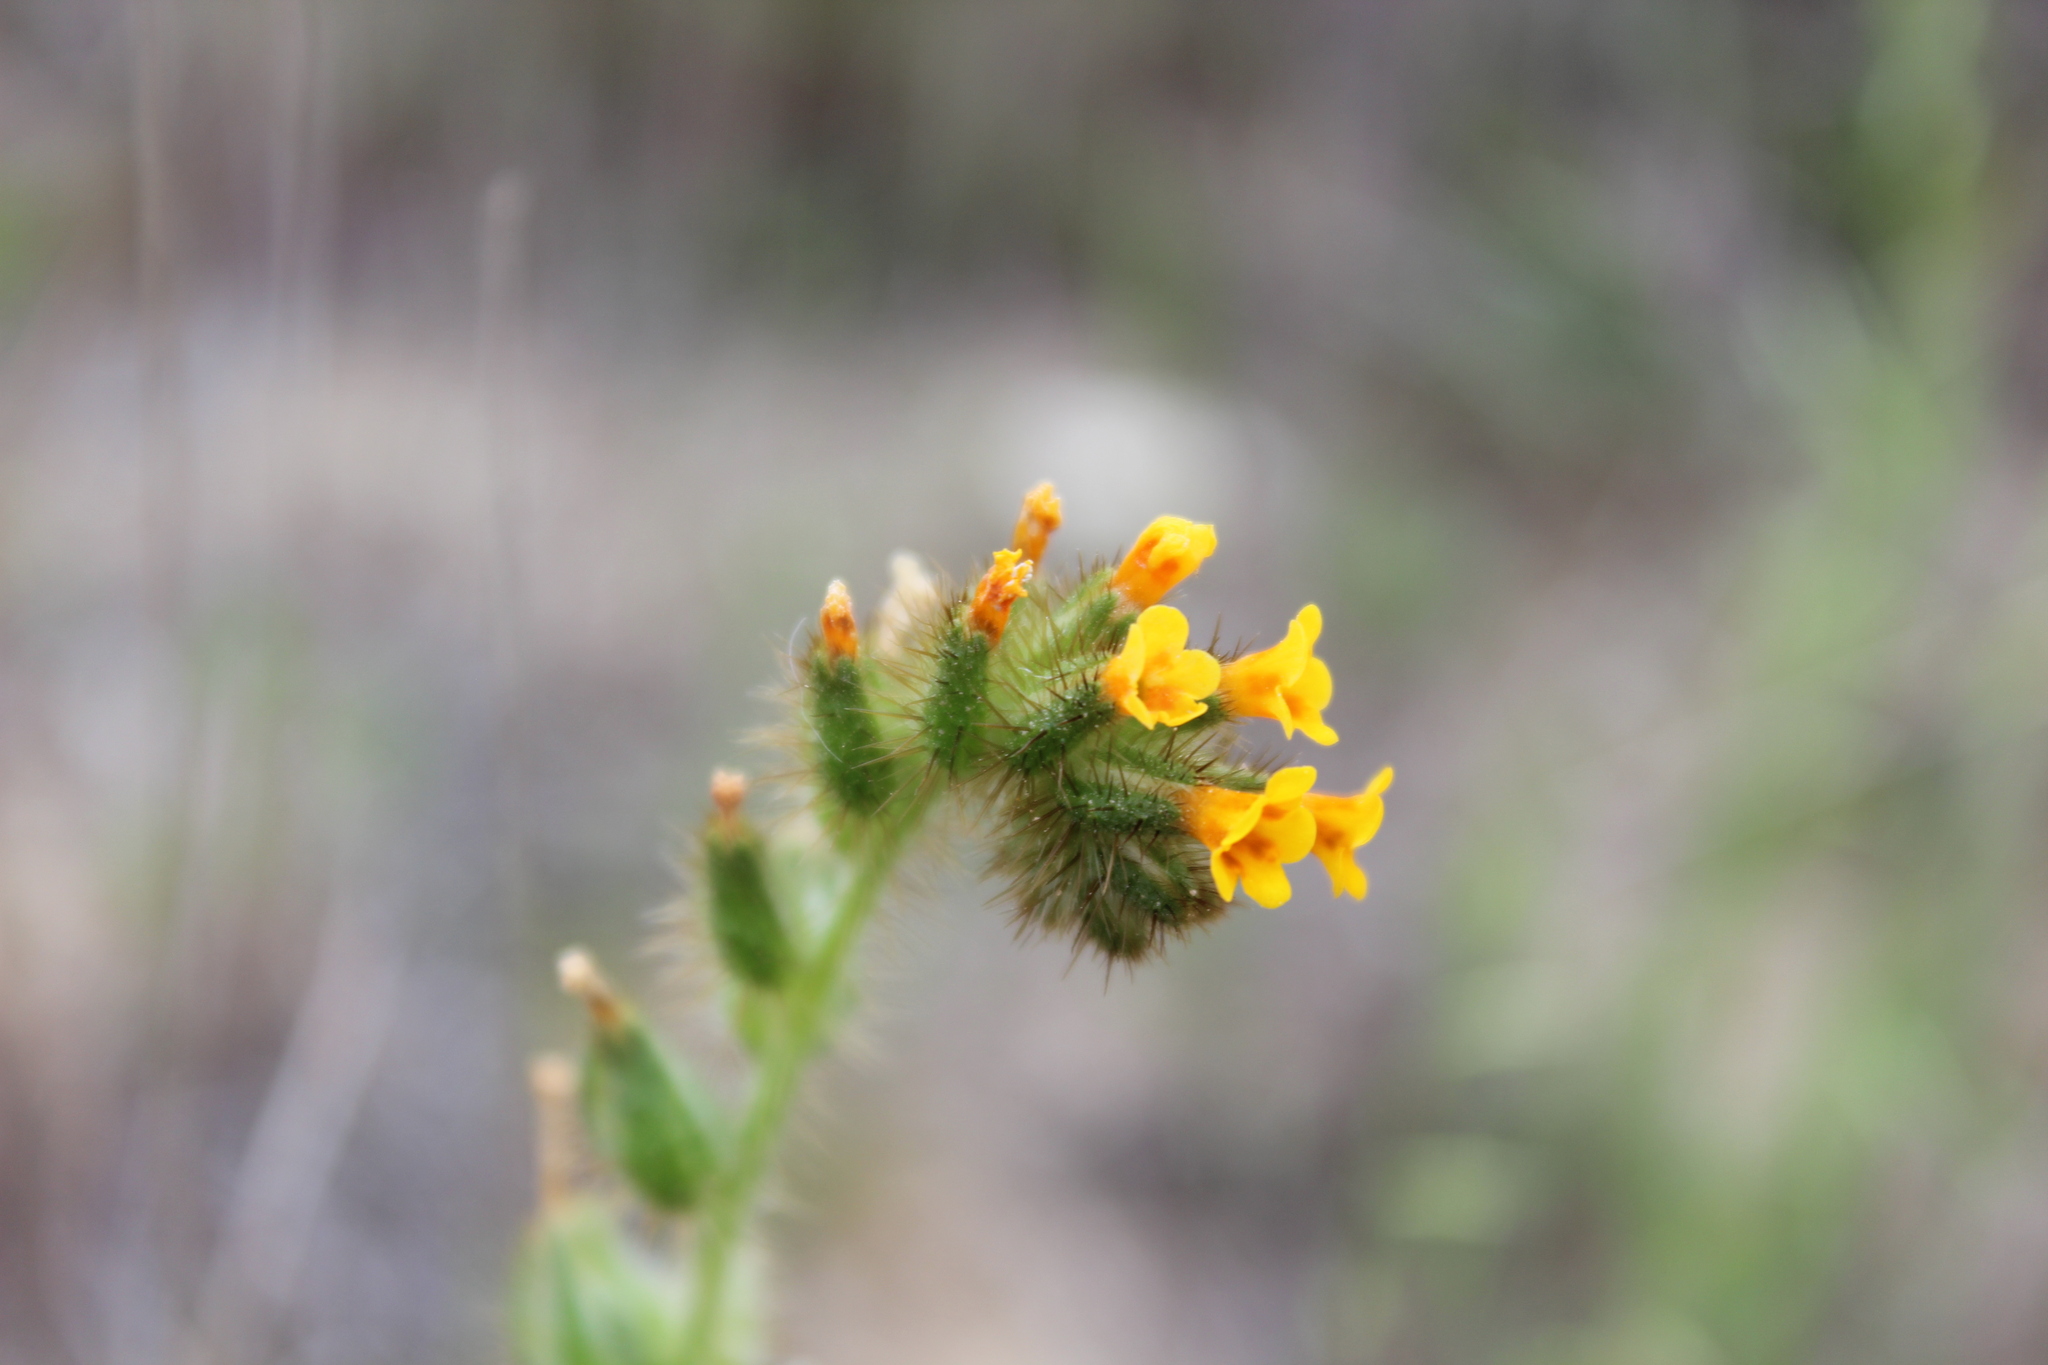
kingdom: Plantae
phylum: Tracheophyta
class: Magnoliopsida
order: Boraginales
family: Boraginaceae
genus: Amsinckia
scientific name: Amsinckia
